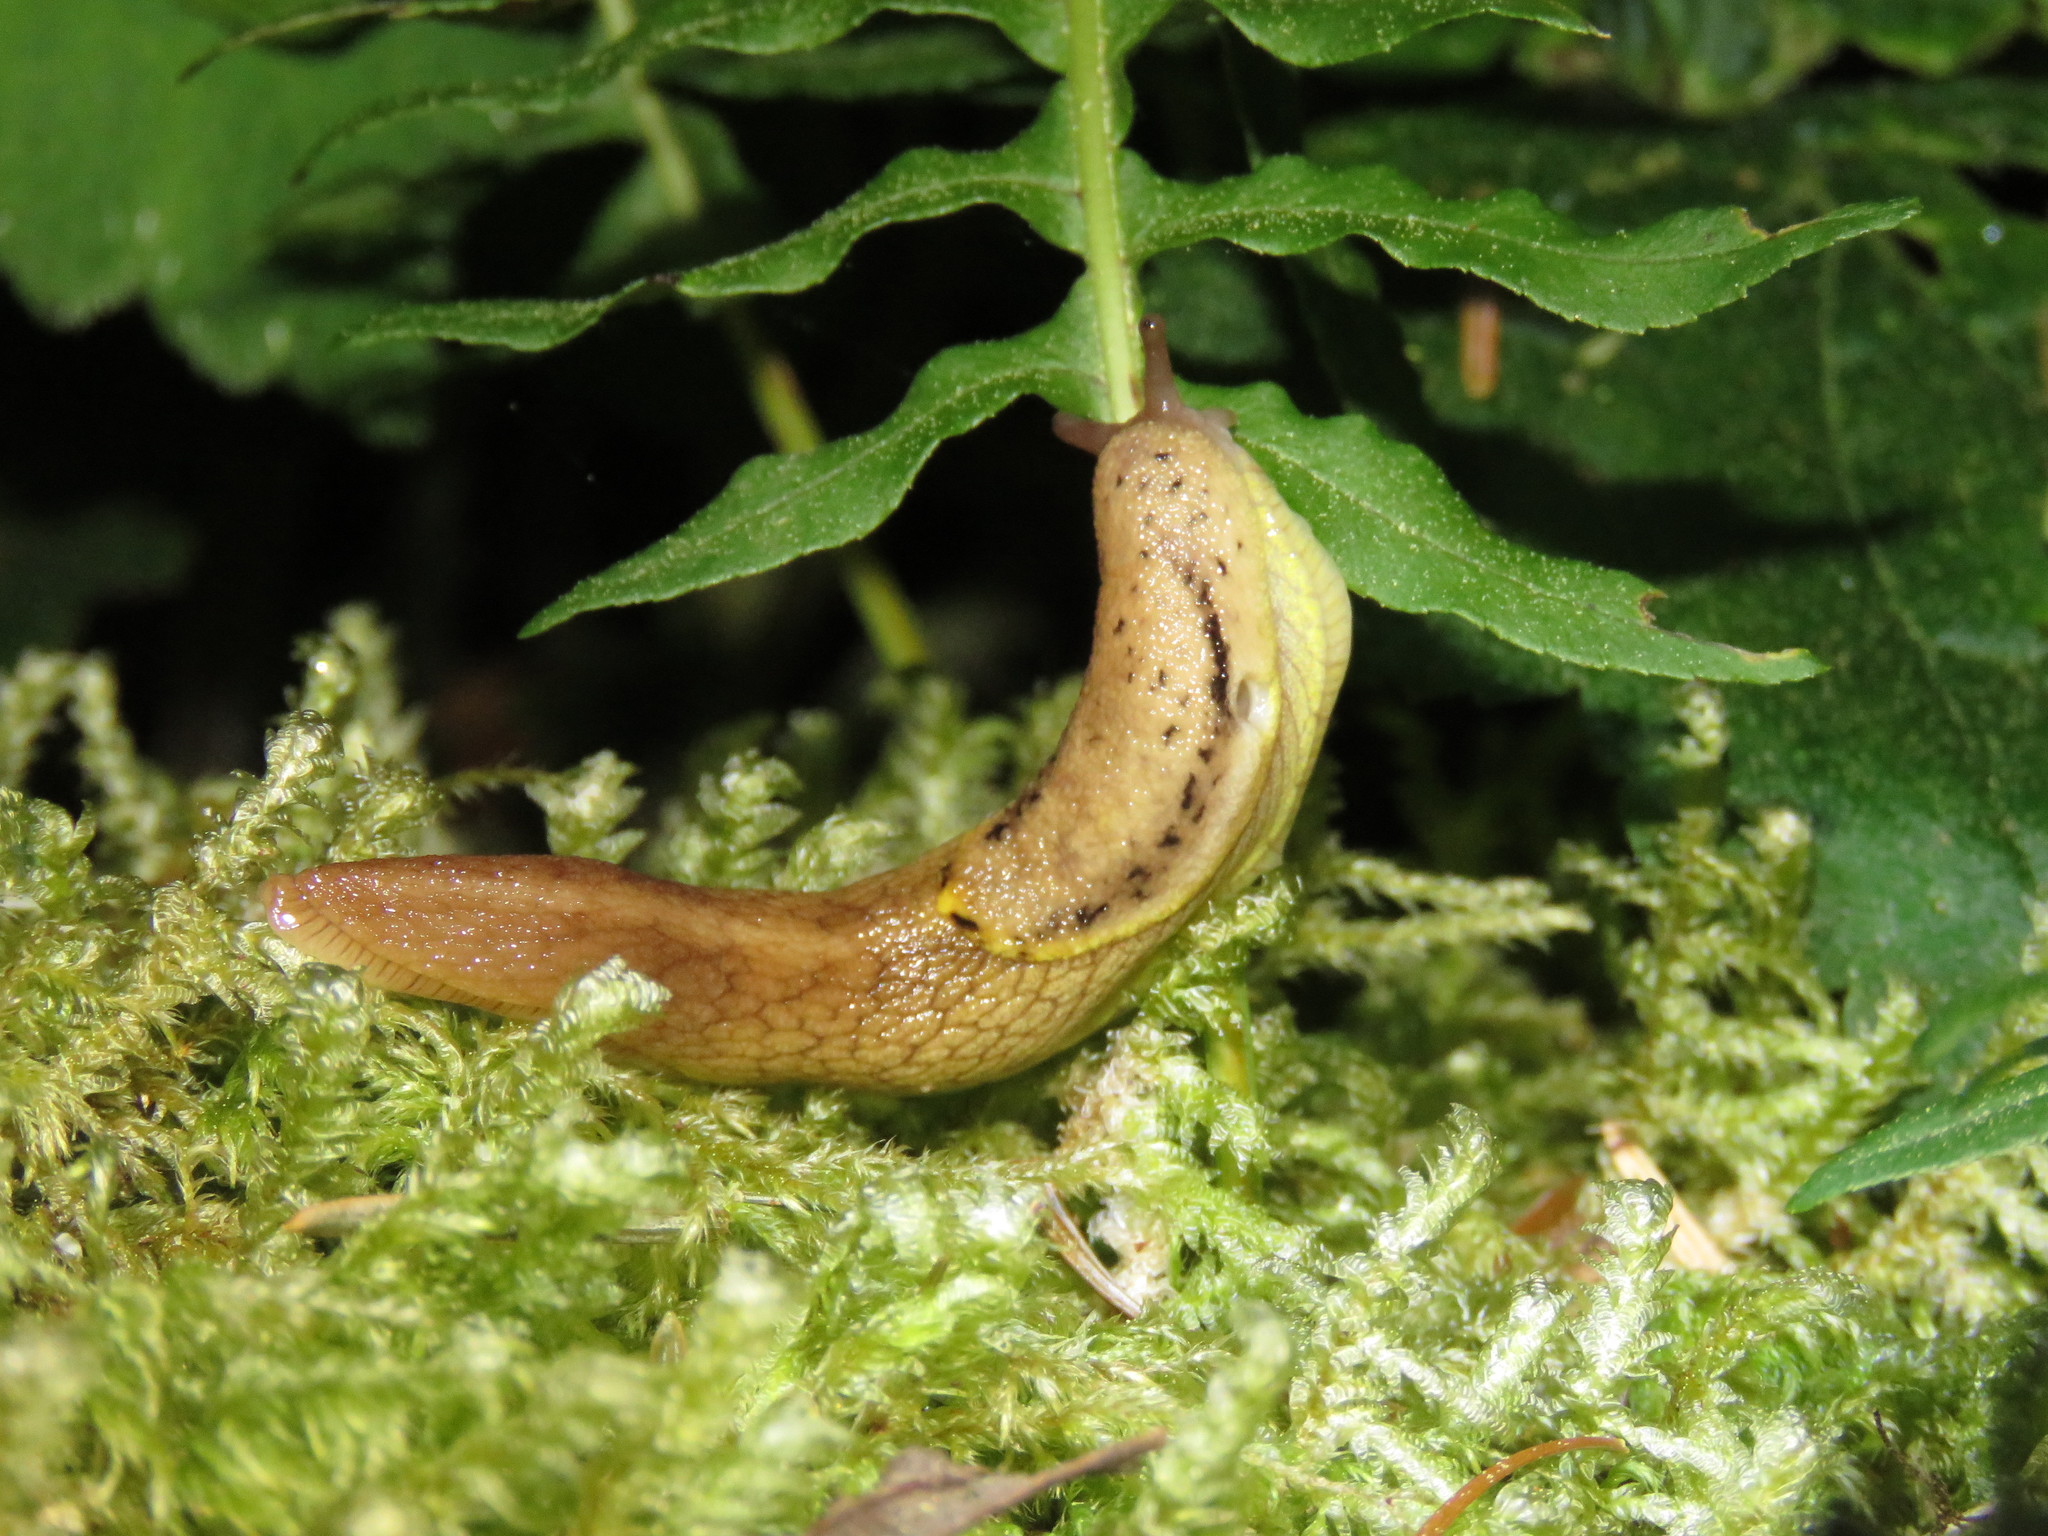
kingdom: Animalia
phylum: Mollusca
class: Gastropoda
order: Stylommatophora
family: Ariolimacidae
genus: Prophysaon
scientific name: Prophysaon foliolatum
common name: Yellow-bordered taildropper
